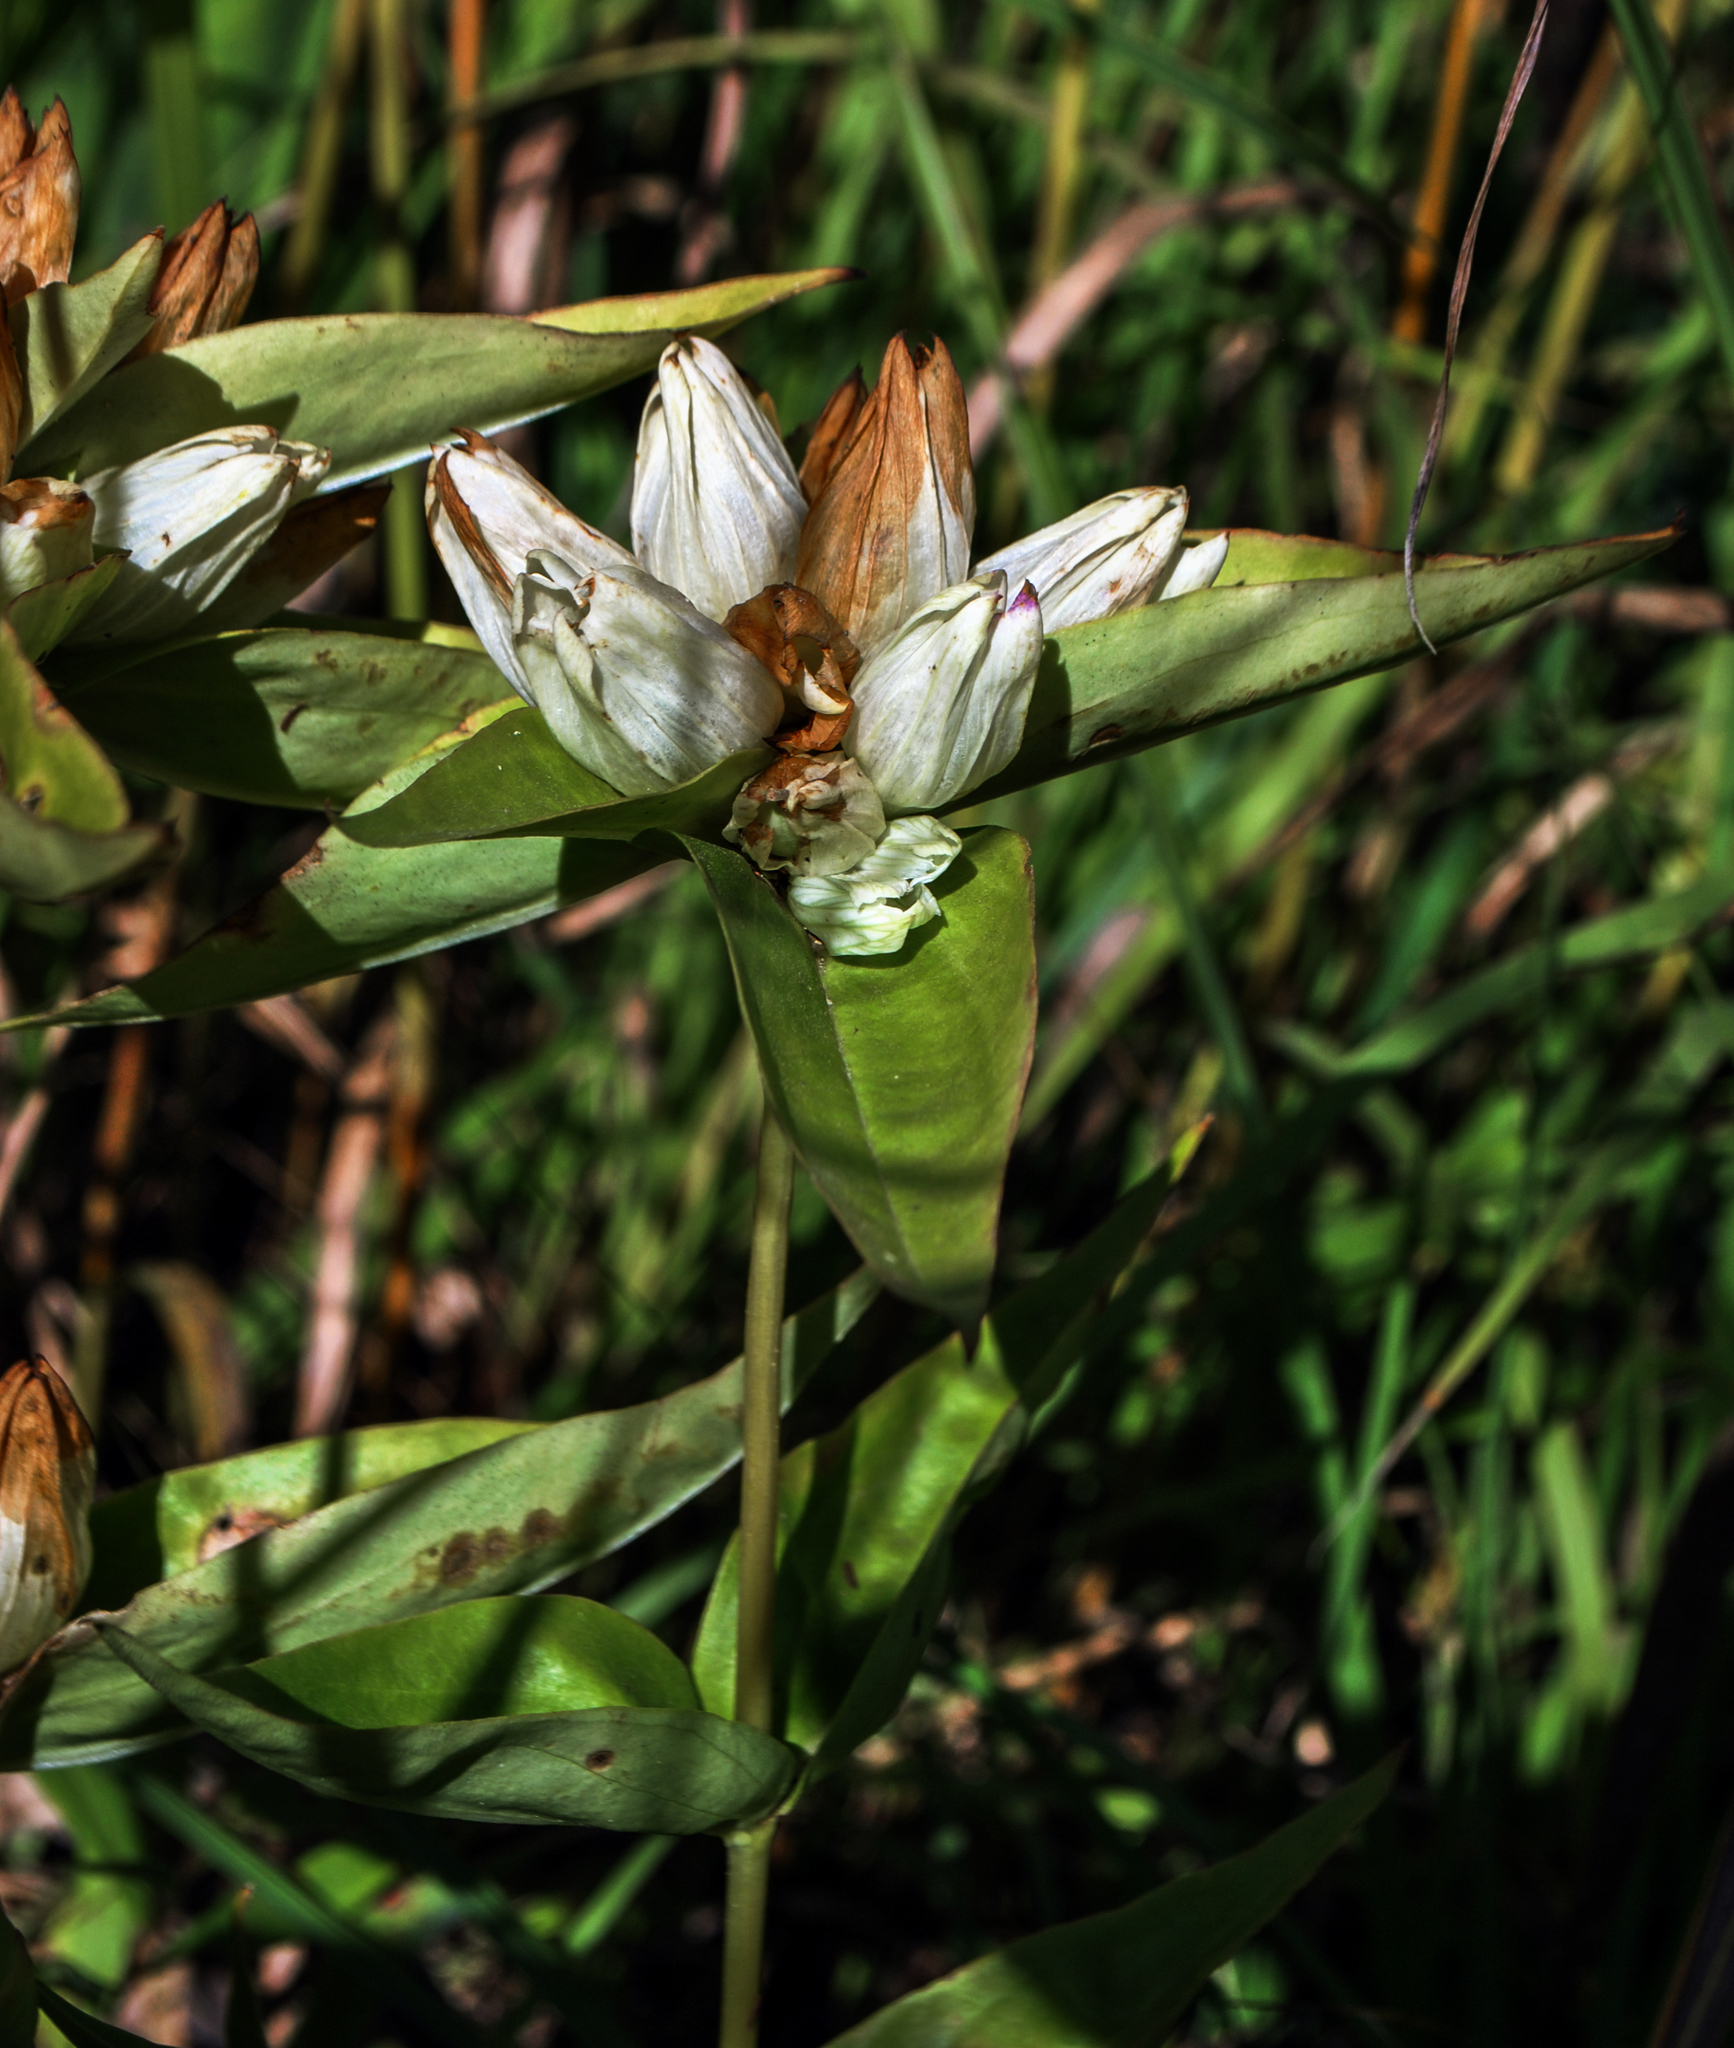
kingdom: Plantae
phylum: Tracheophyta
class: Magnoliopsida
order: Gentianales
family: Gentianaceae
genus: Gentiana
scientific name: Gentiana alba
